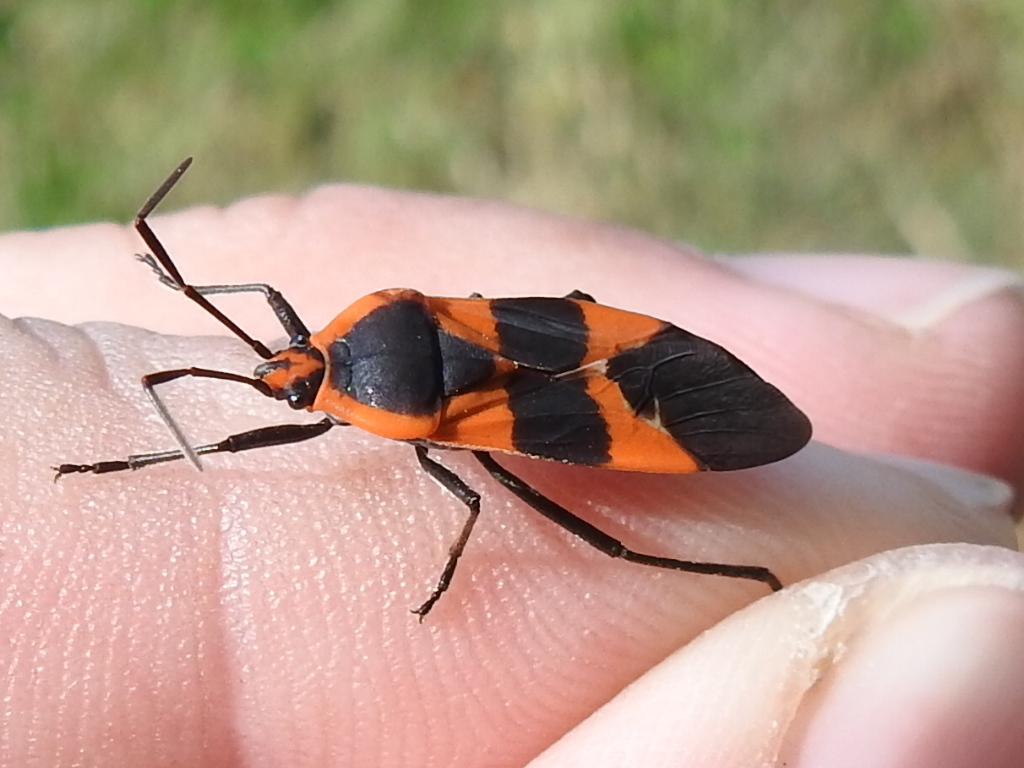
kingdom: Animalia
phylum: Arthropoda
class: Insecta
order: Hemiptera
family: Lygaeidae
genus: Oncopeltus
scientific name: Oncopeltus fasciatus
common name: Large milkweed bug
